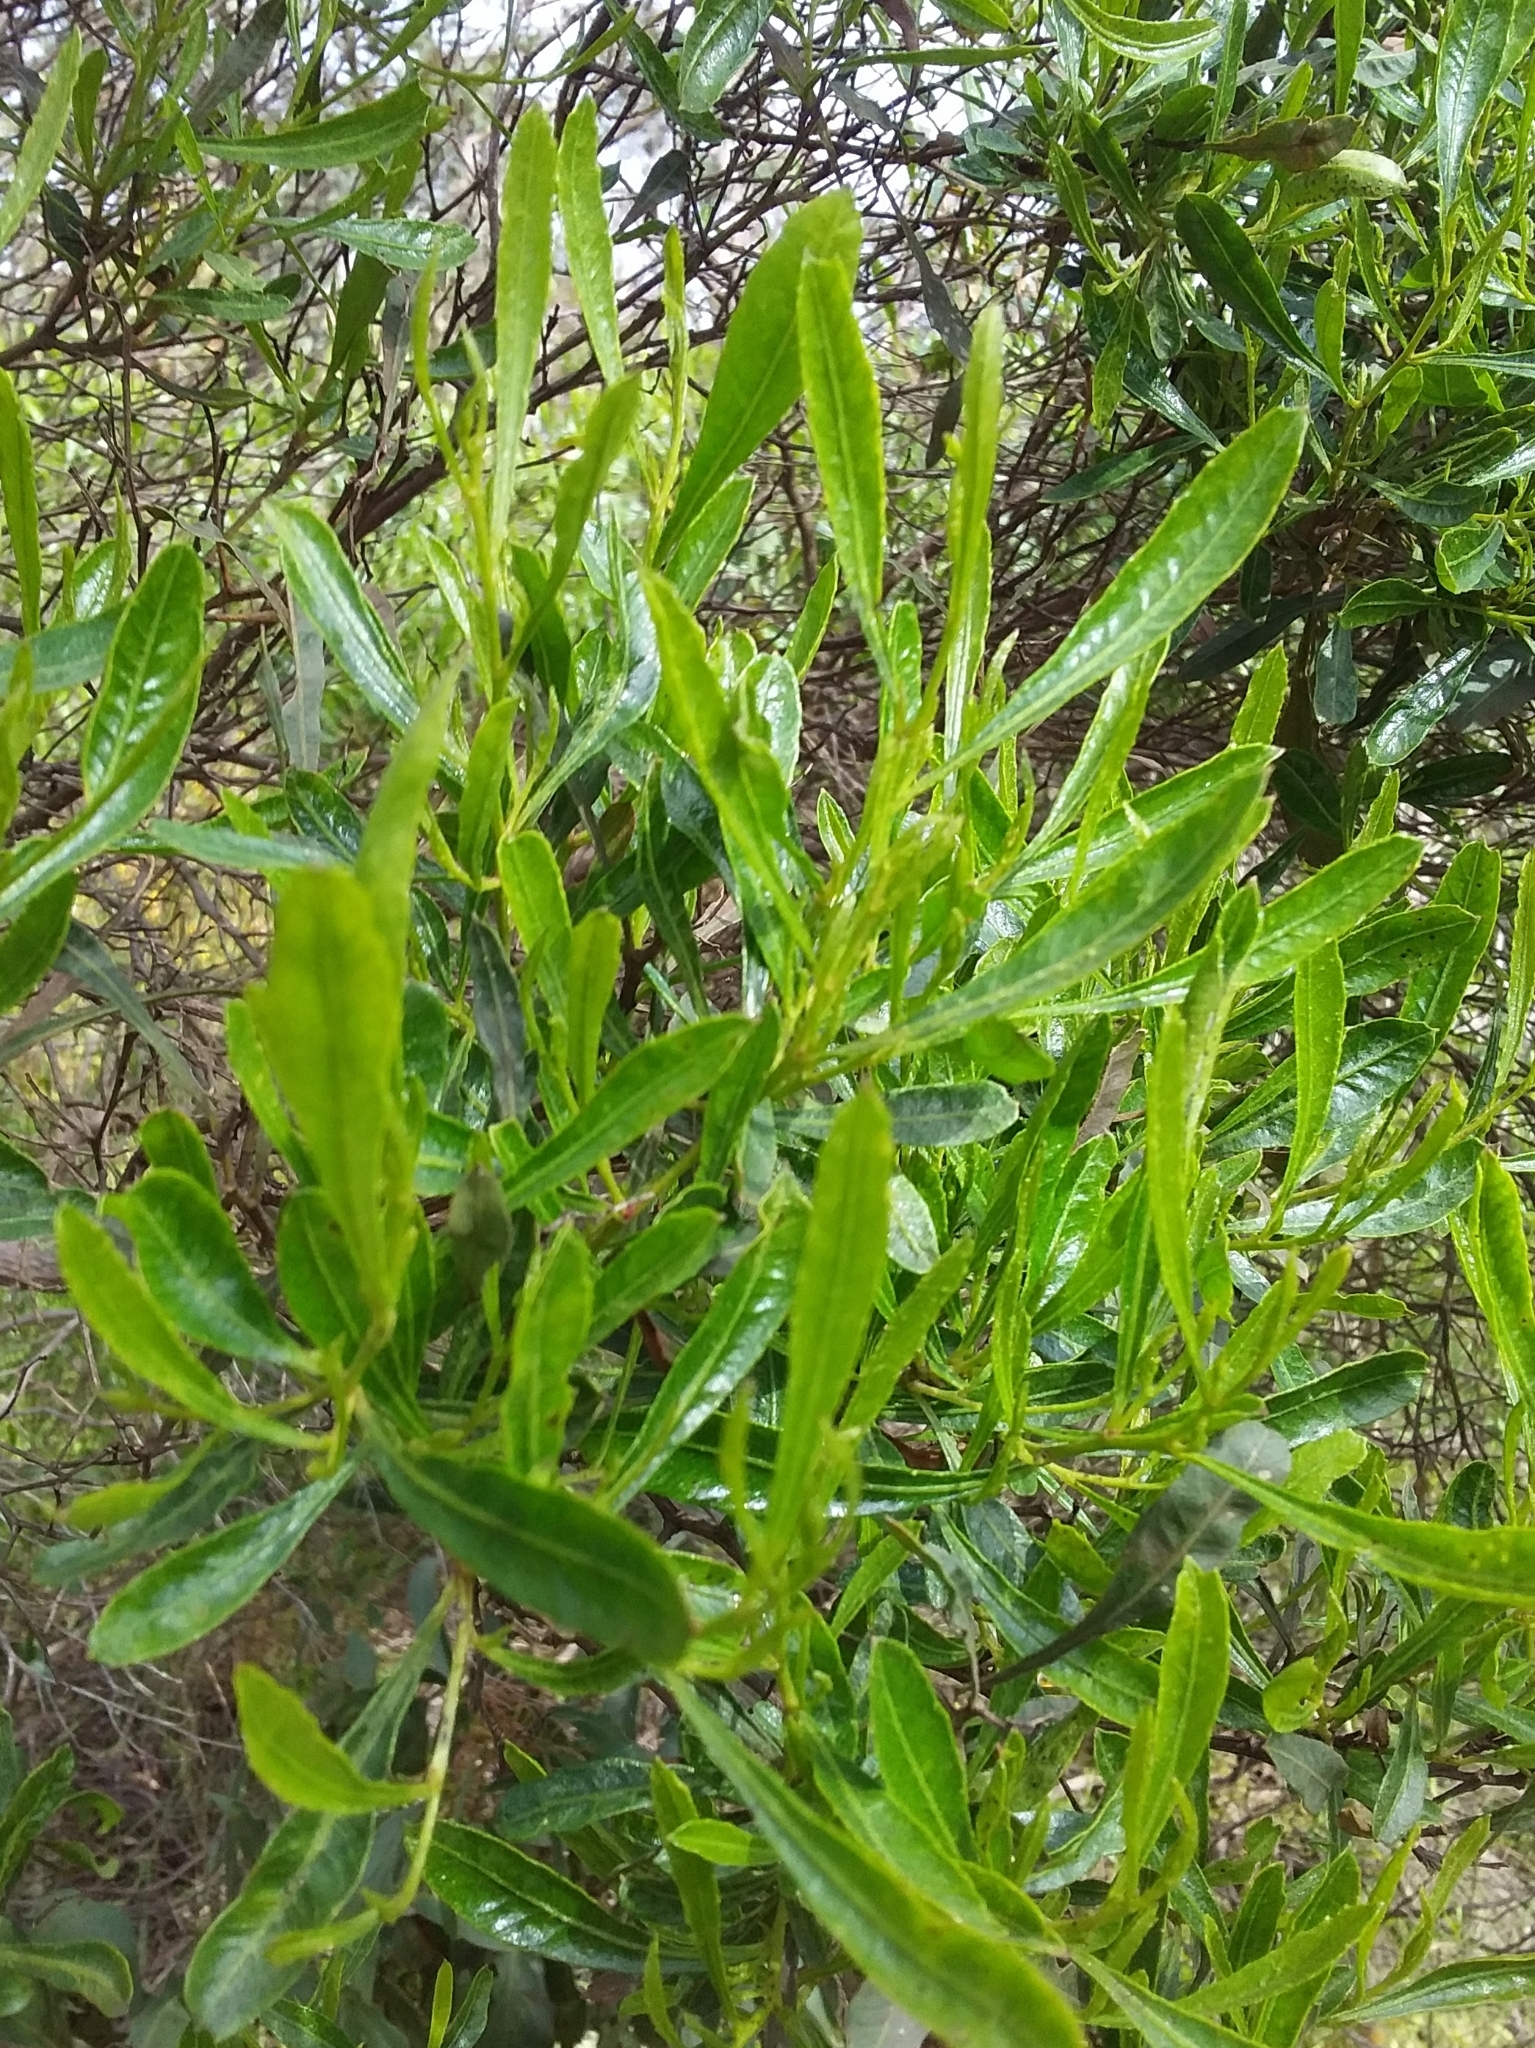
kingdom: Plantae
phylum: Tracheophyta
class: Magnoliopsida
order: Sapindales
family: Sapindaceae
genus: Dodonaea
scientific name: Dodonaea viscosa
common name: Hopbush
